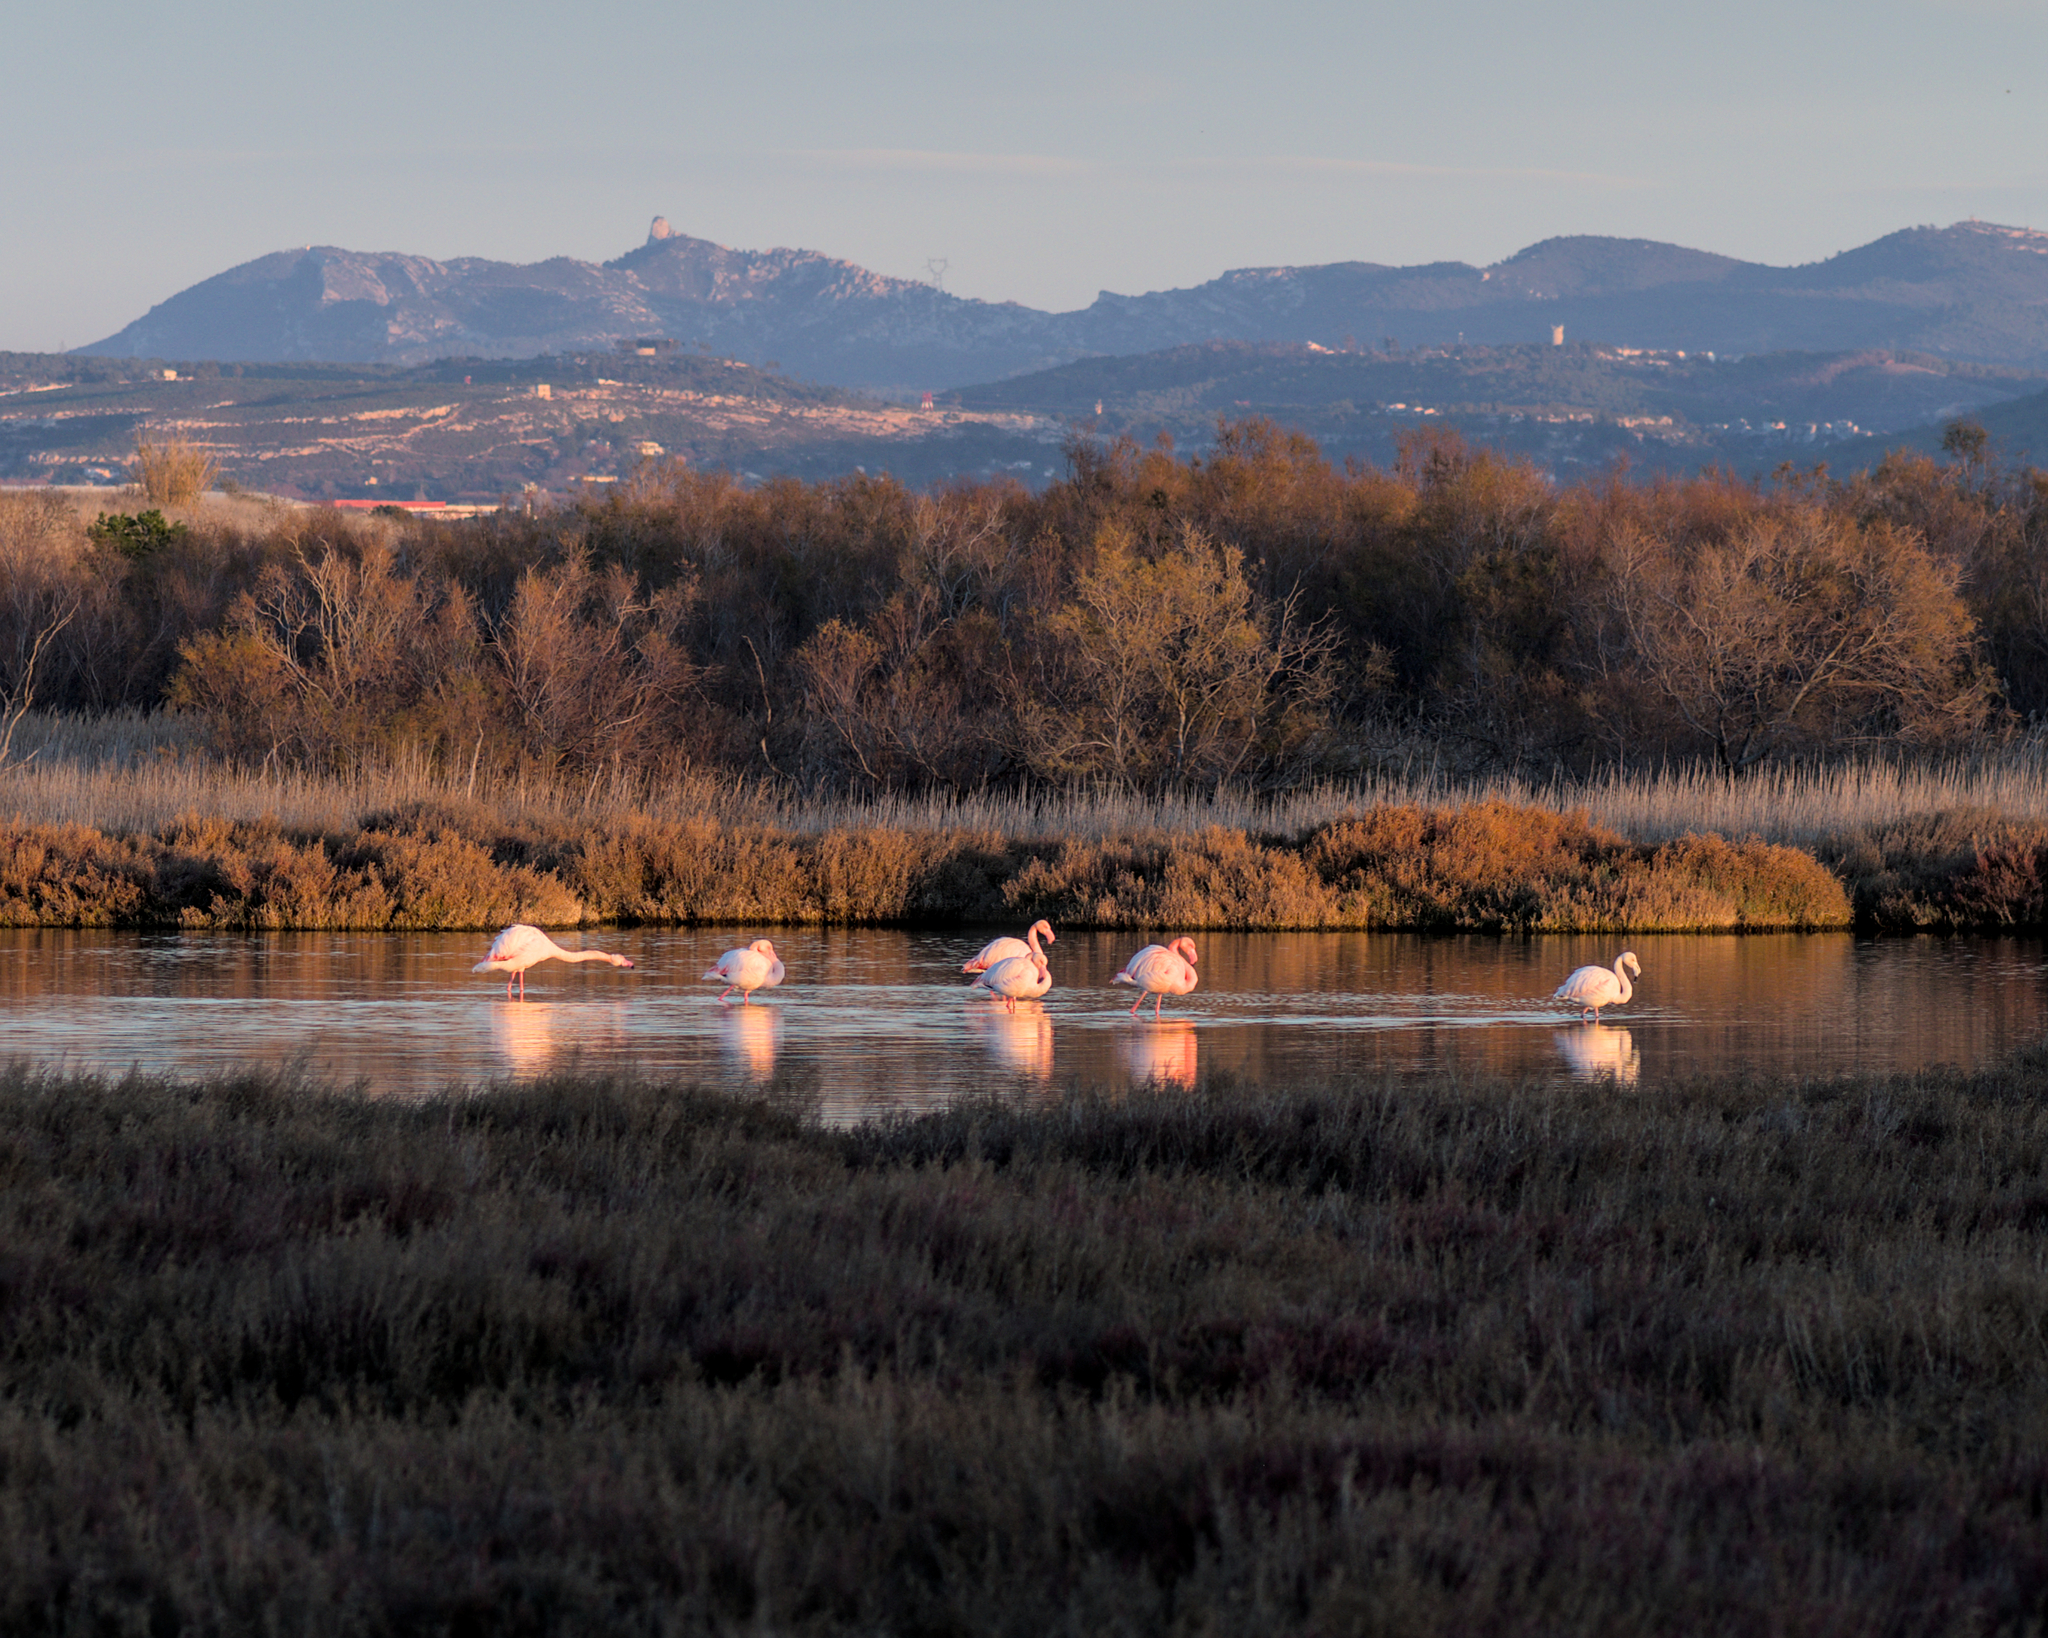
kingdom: Animalia
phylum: Chordata
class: Aves
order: Phoenicopteriformes
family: Phoenicopteridae
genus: Phoenicopterus
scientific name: Phoenicopterus roseus
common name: Greater flamingo
